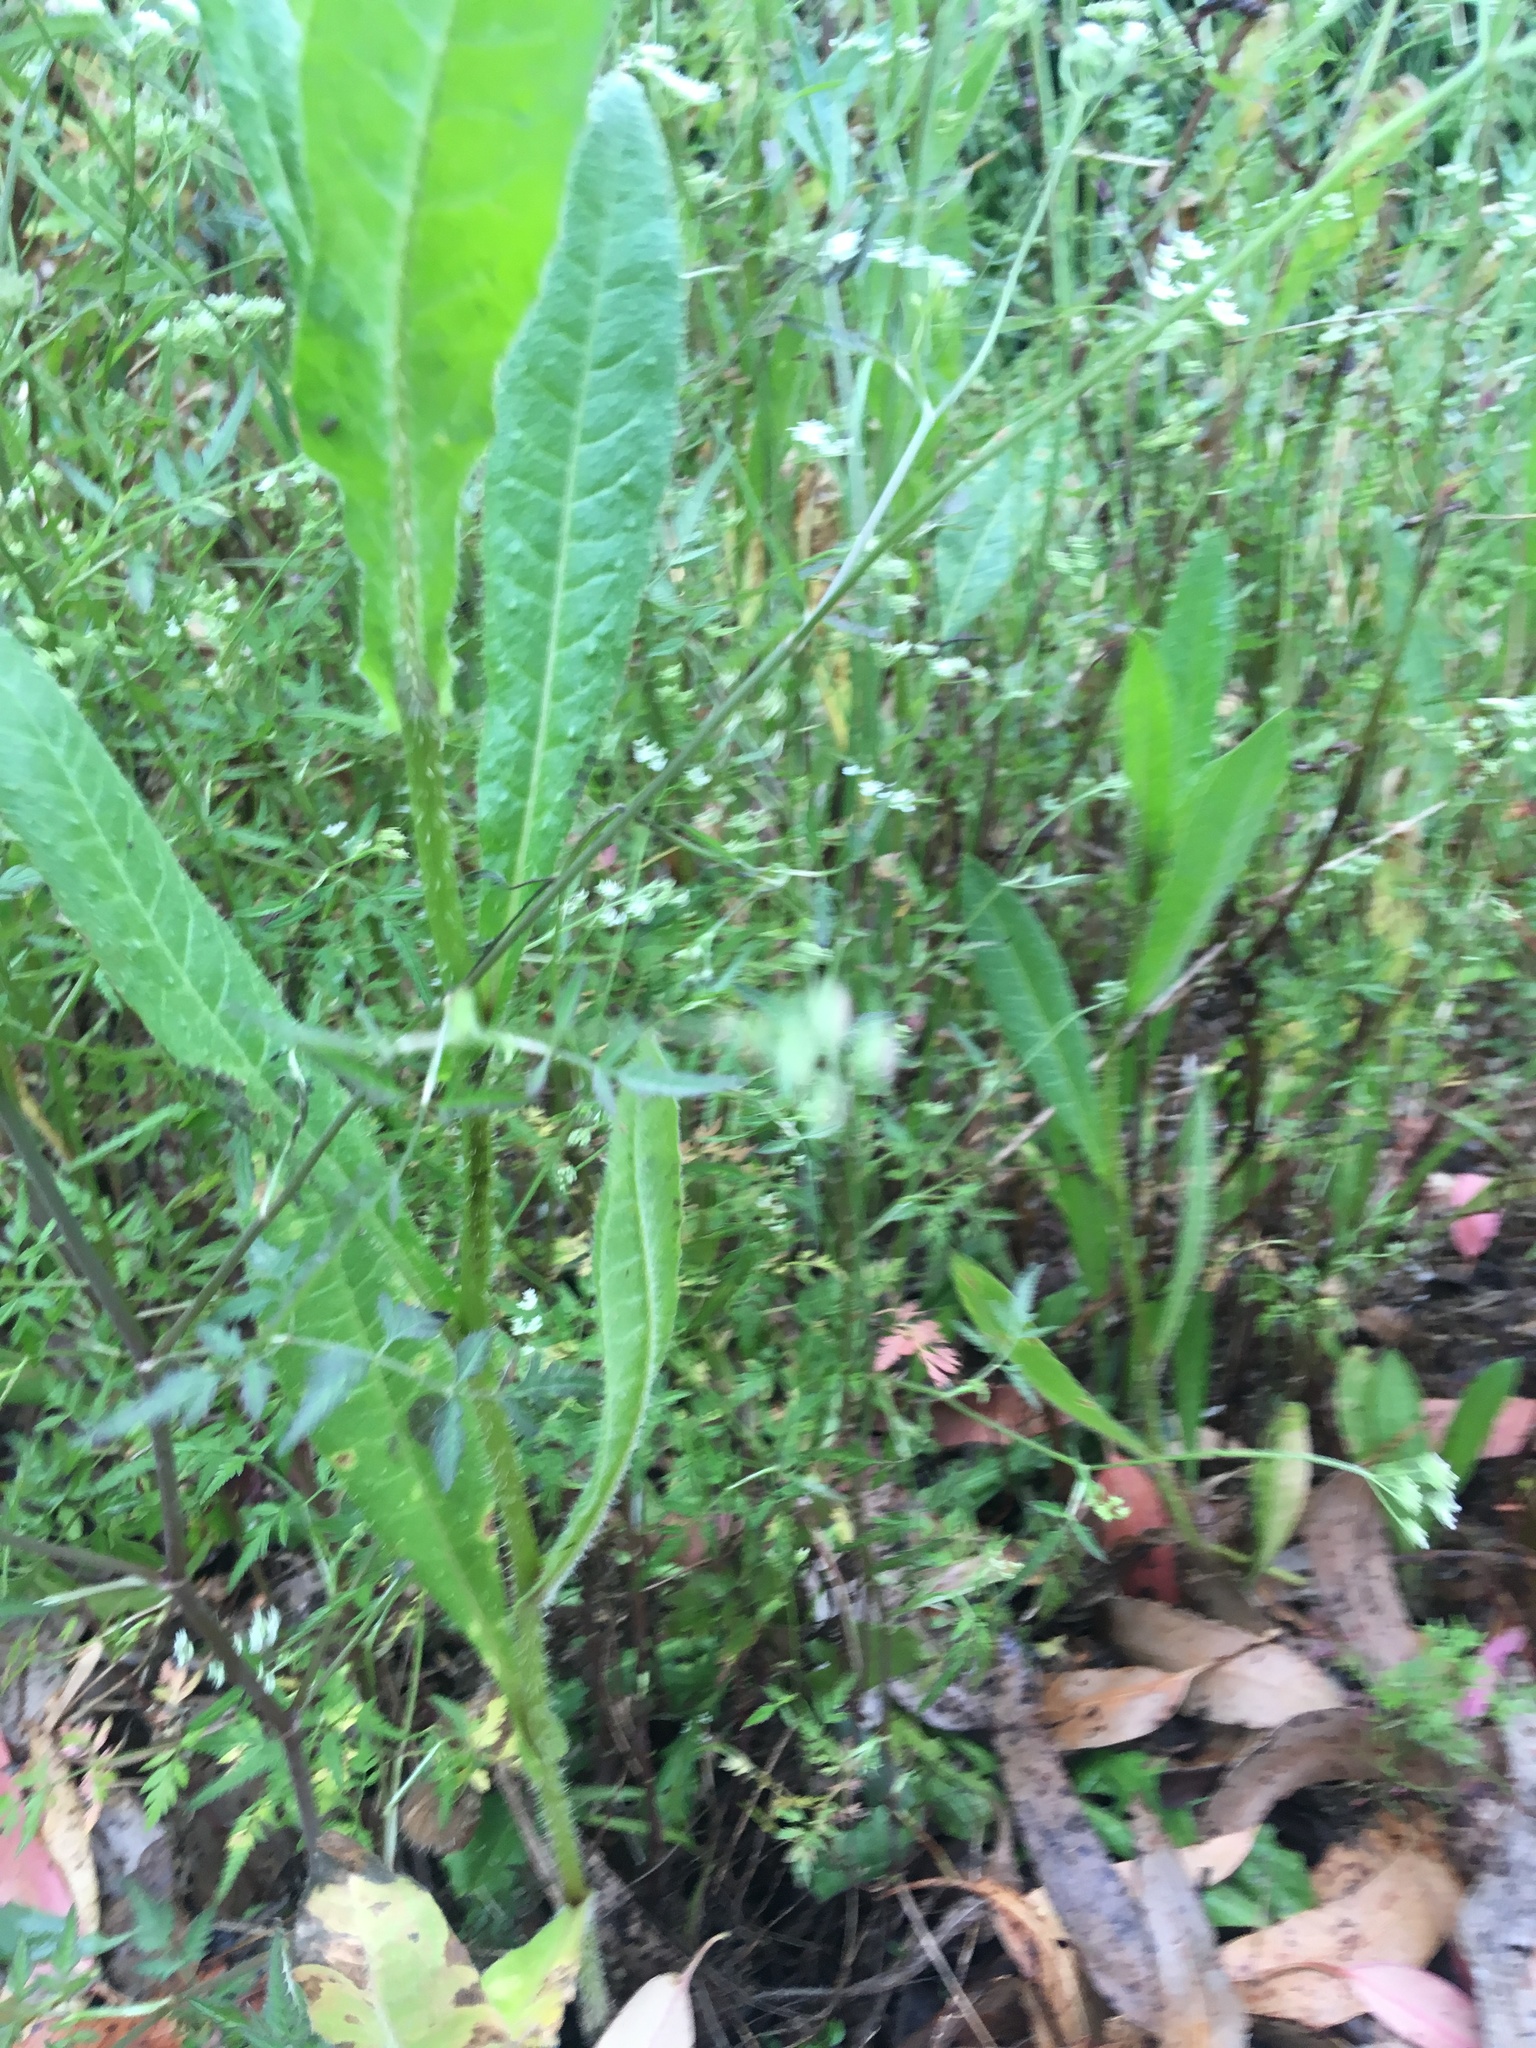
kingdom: Plantae
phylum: Tracheophyta
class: Magnoliopsida
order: Apiales
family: Apiaceae
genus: Sison
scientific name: Sison amomum
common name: Stone-parsley
